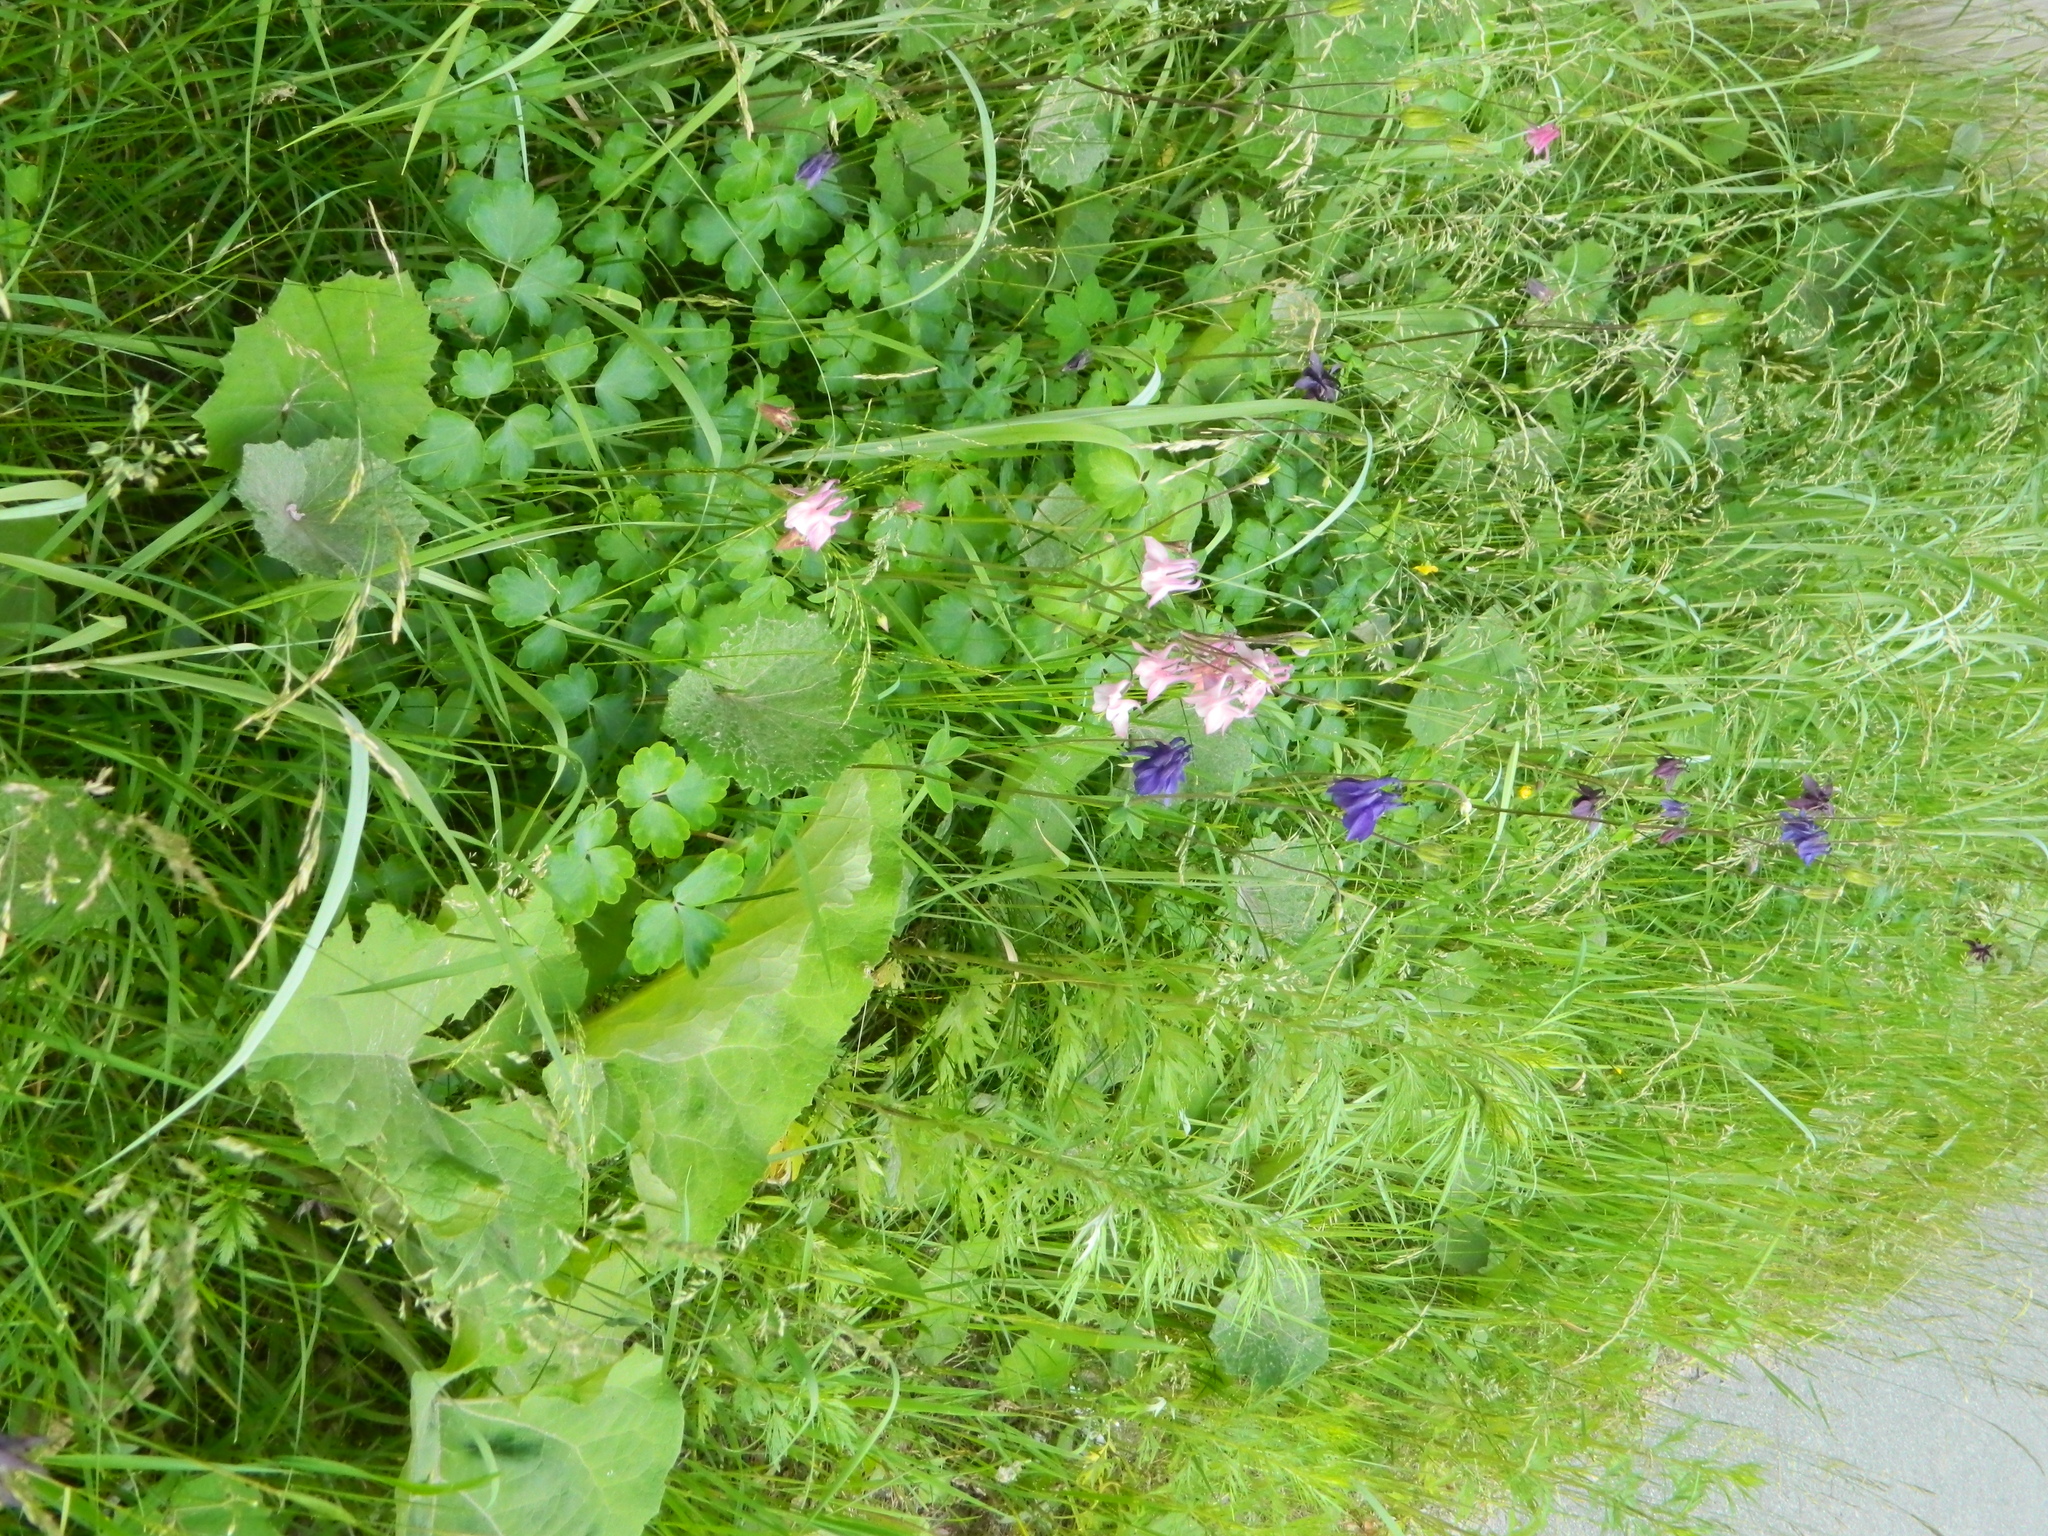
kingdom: Plantae
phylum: Tracheophyta
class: Magnoliopsida
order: Ranunculales
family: Ranunculaceae
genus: Aquilegia
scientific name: Aquilegia vulgaris
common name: Columbine
